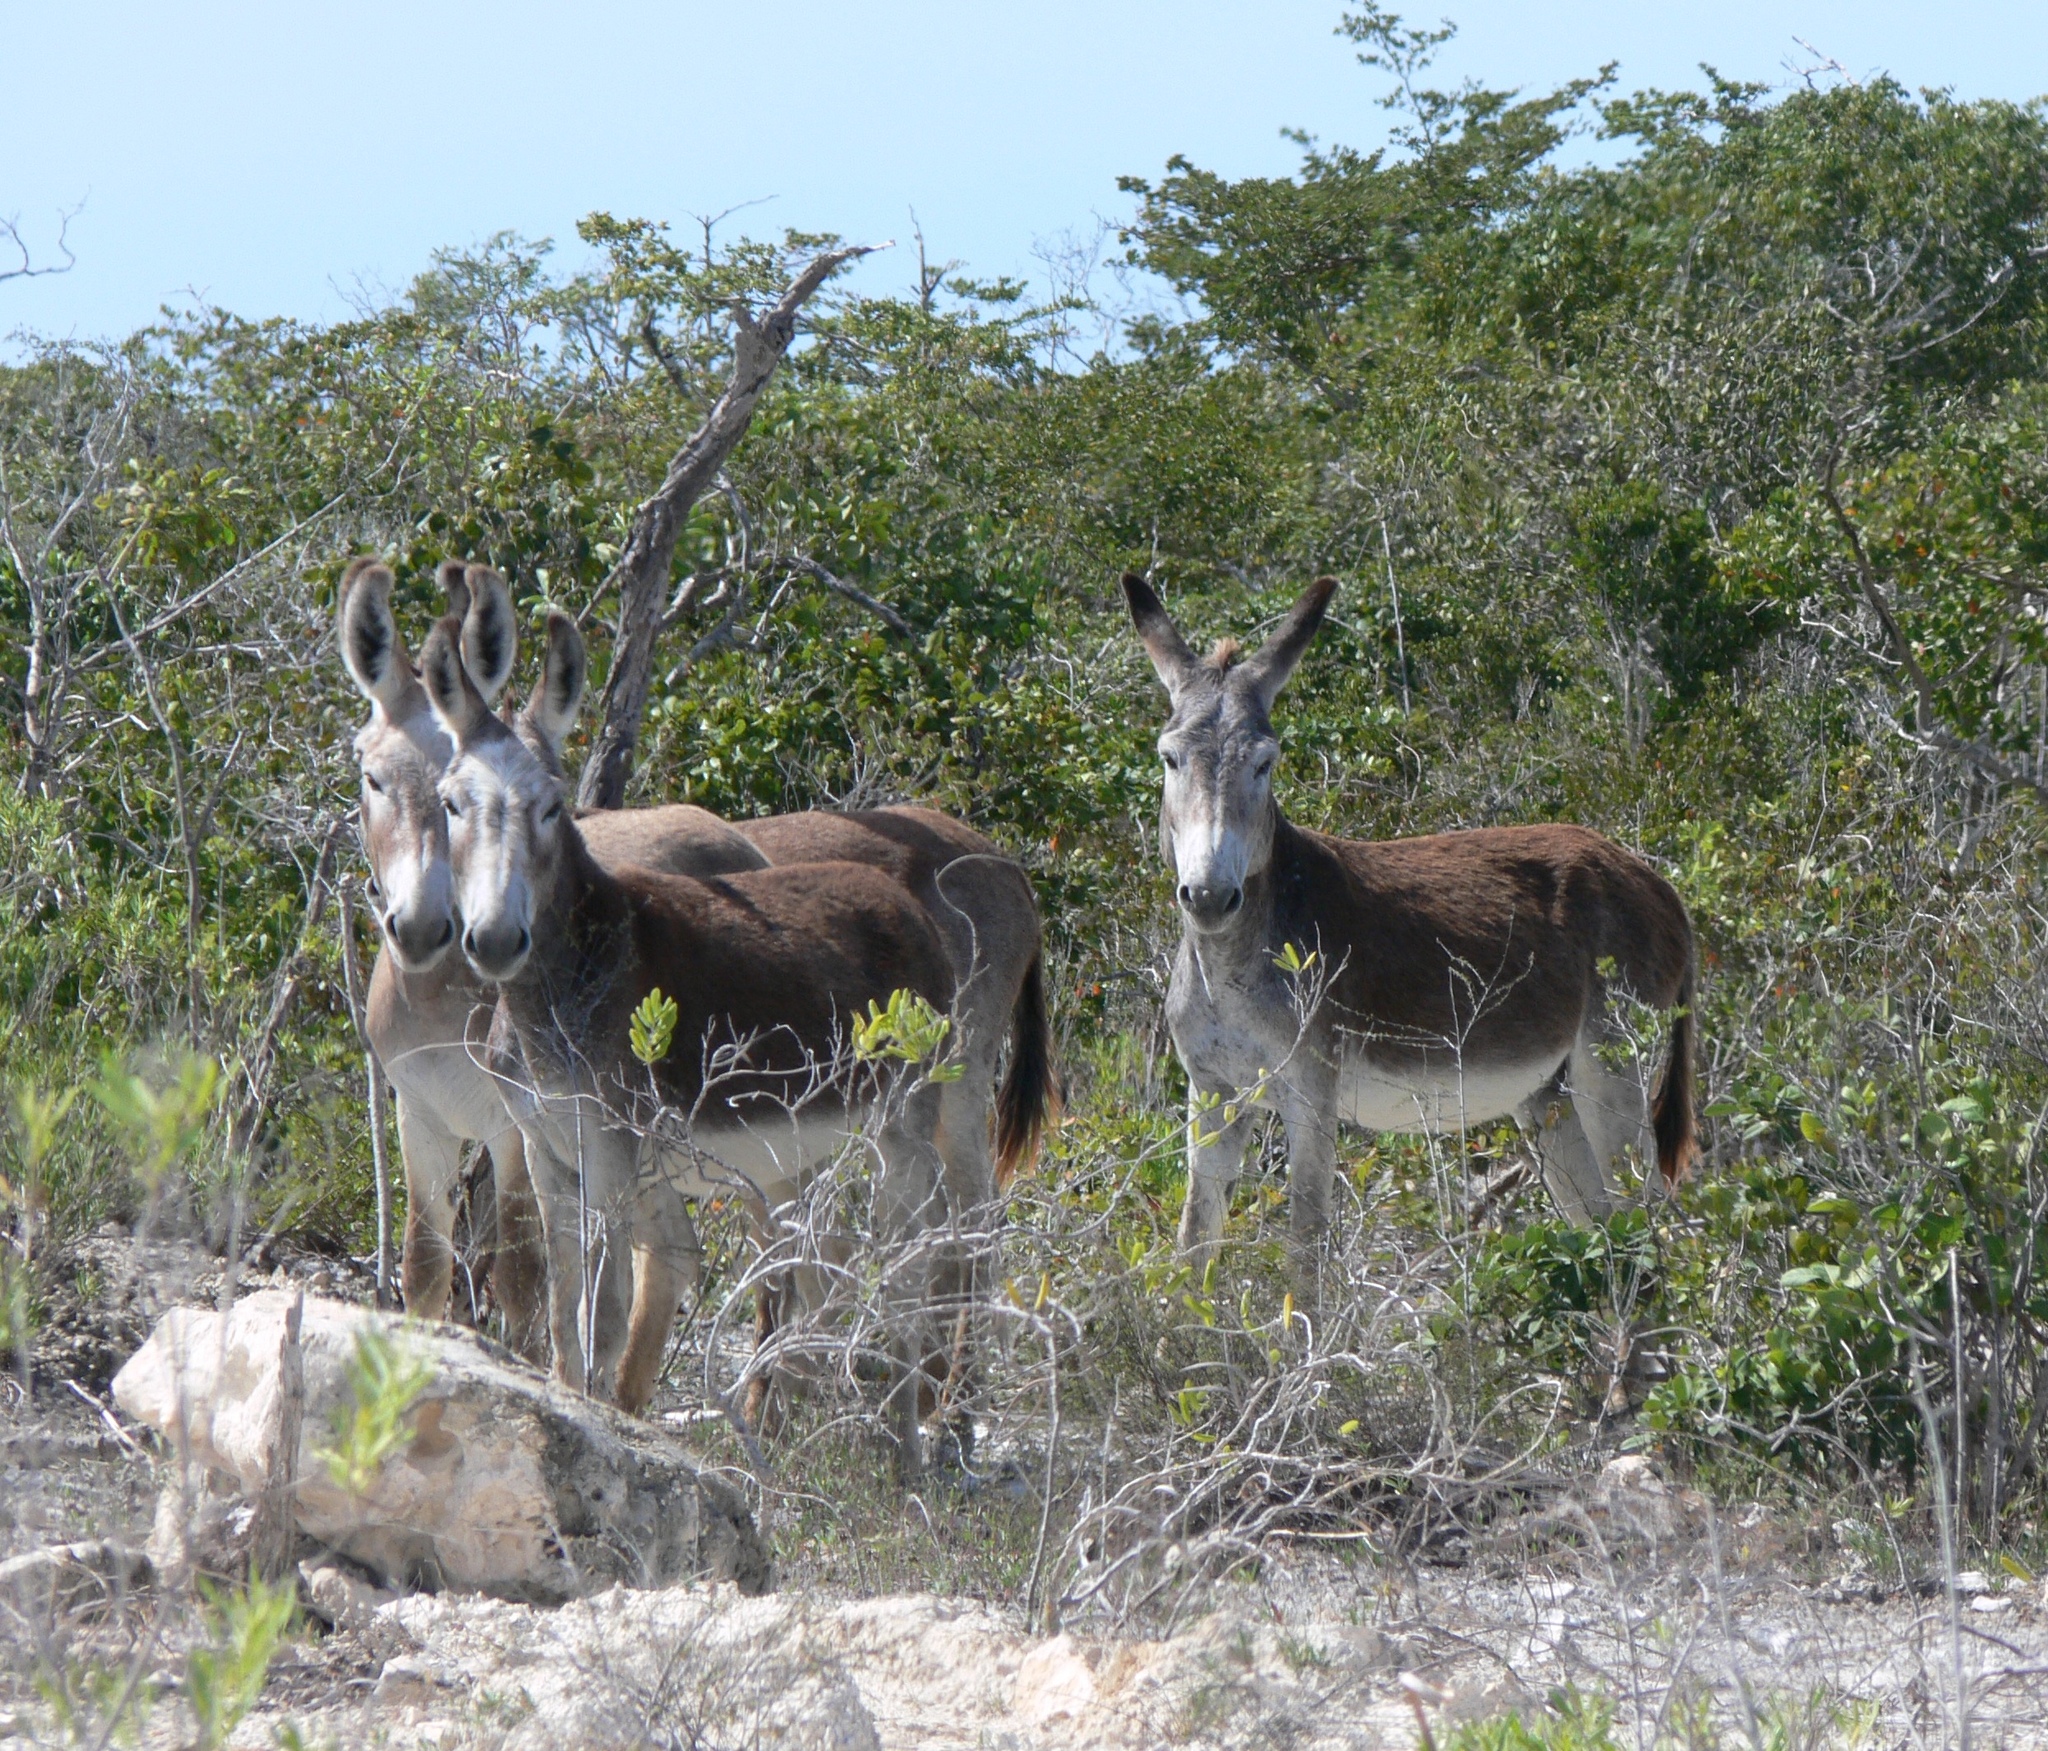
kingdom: Animalia
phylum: Chordata
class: Mammalia
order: Perissodactyla
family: Equidae
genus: Equus
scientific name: Equus asinus
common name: Ass
